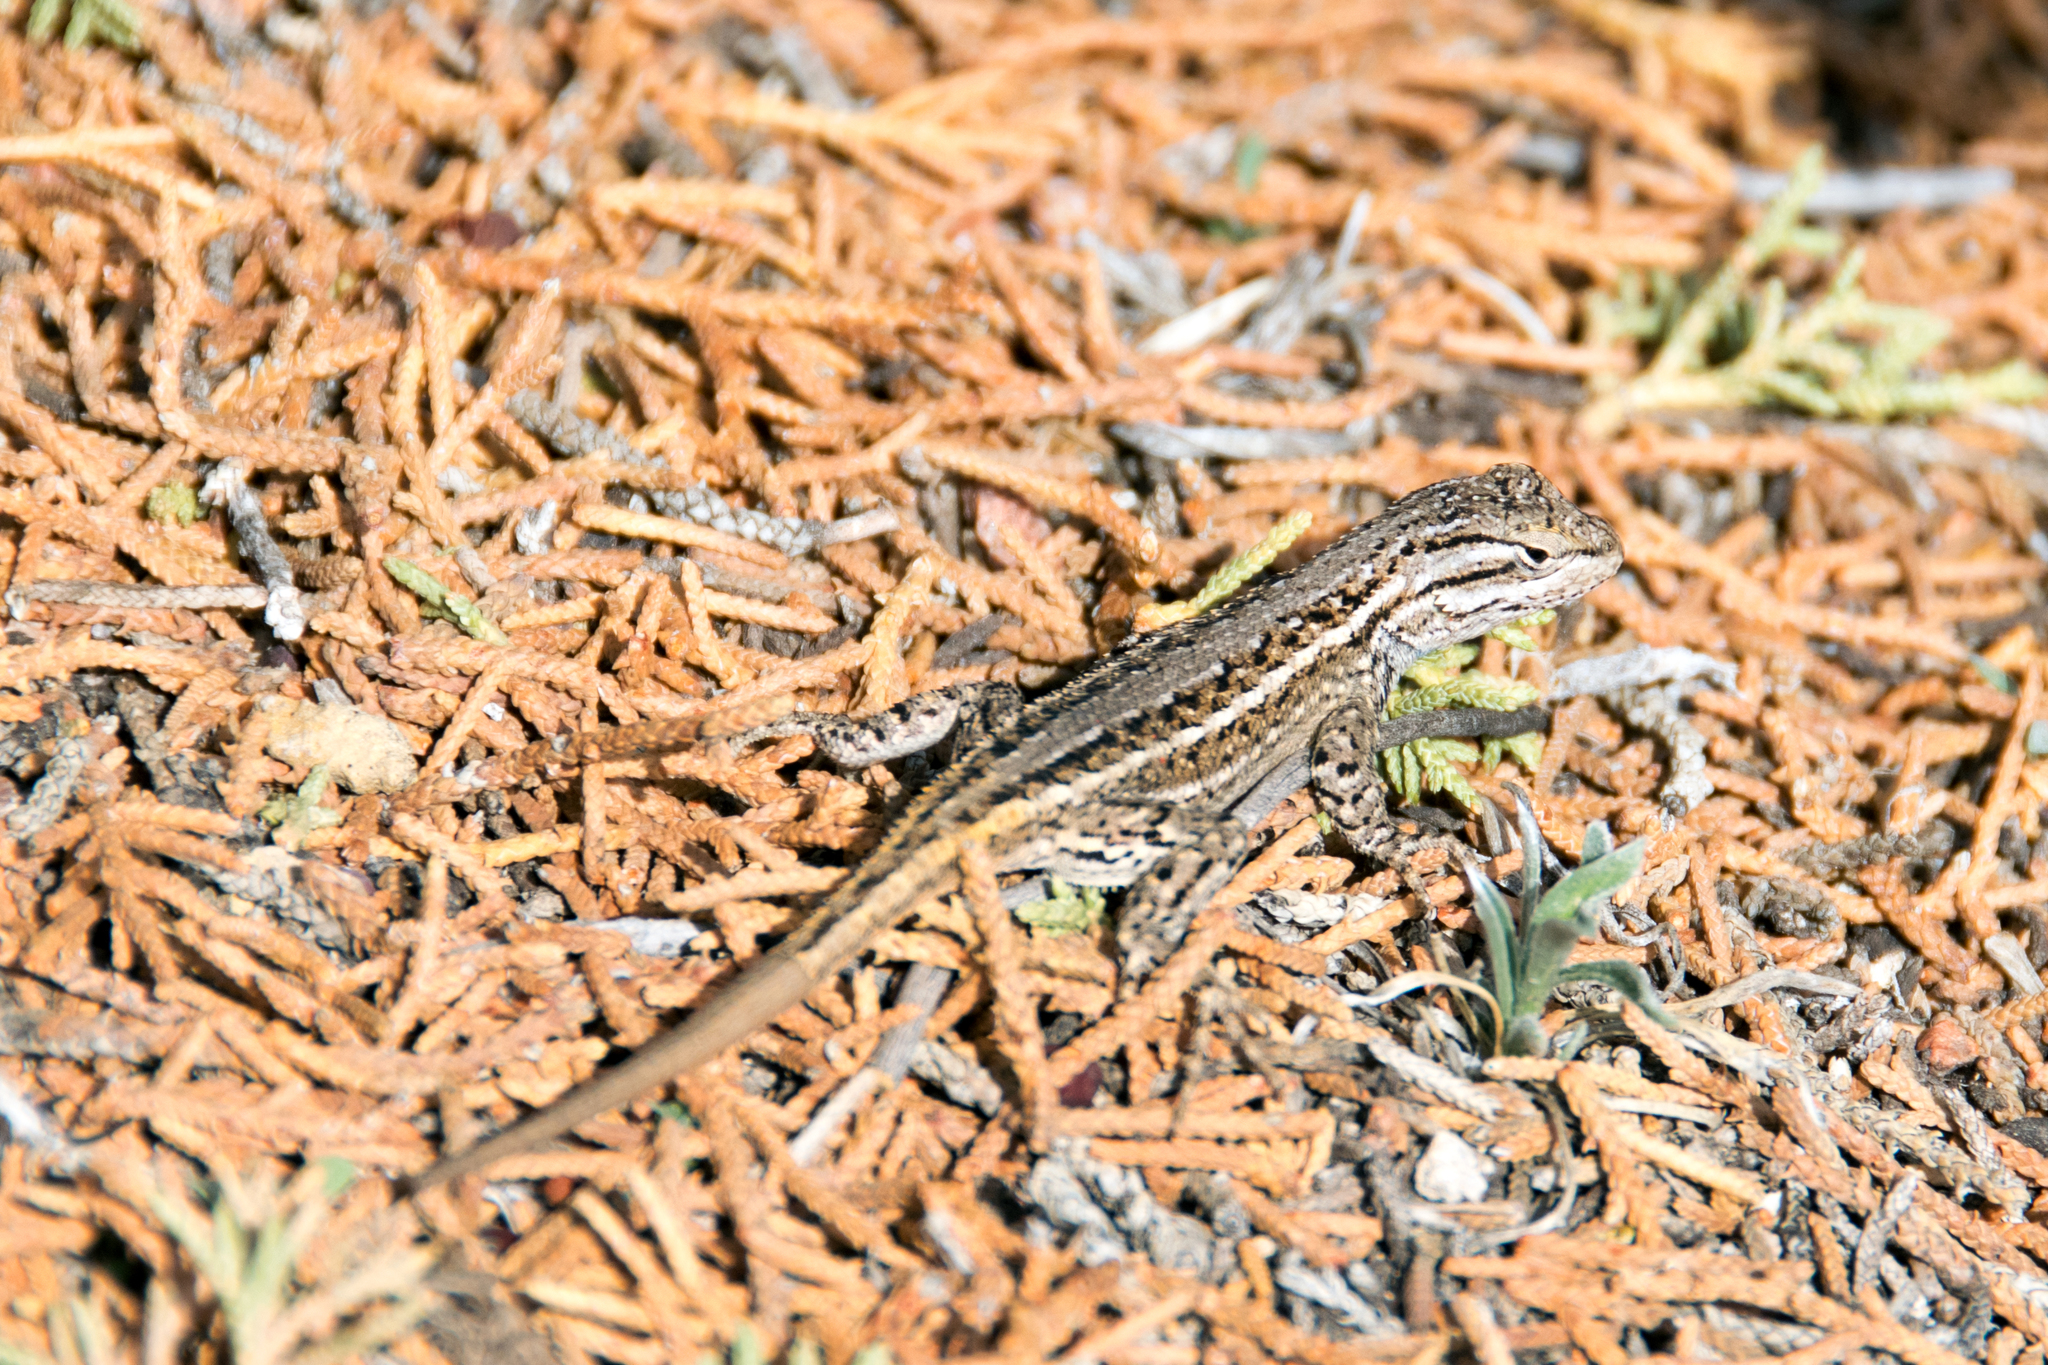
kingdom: Animalia
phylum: Chordata
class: Squamata
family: Phrynosomatidae
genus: Sceloporus
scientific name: Sceloporus cowlesi
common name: White sands prairie lizard
